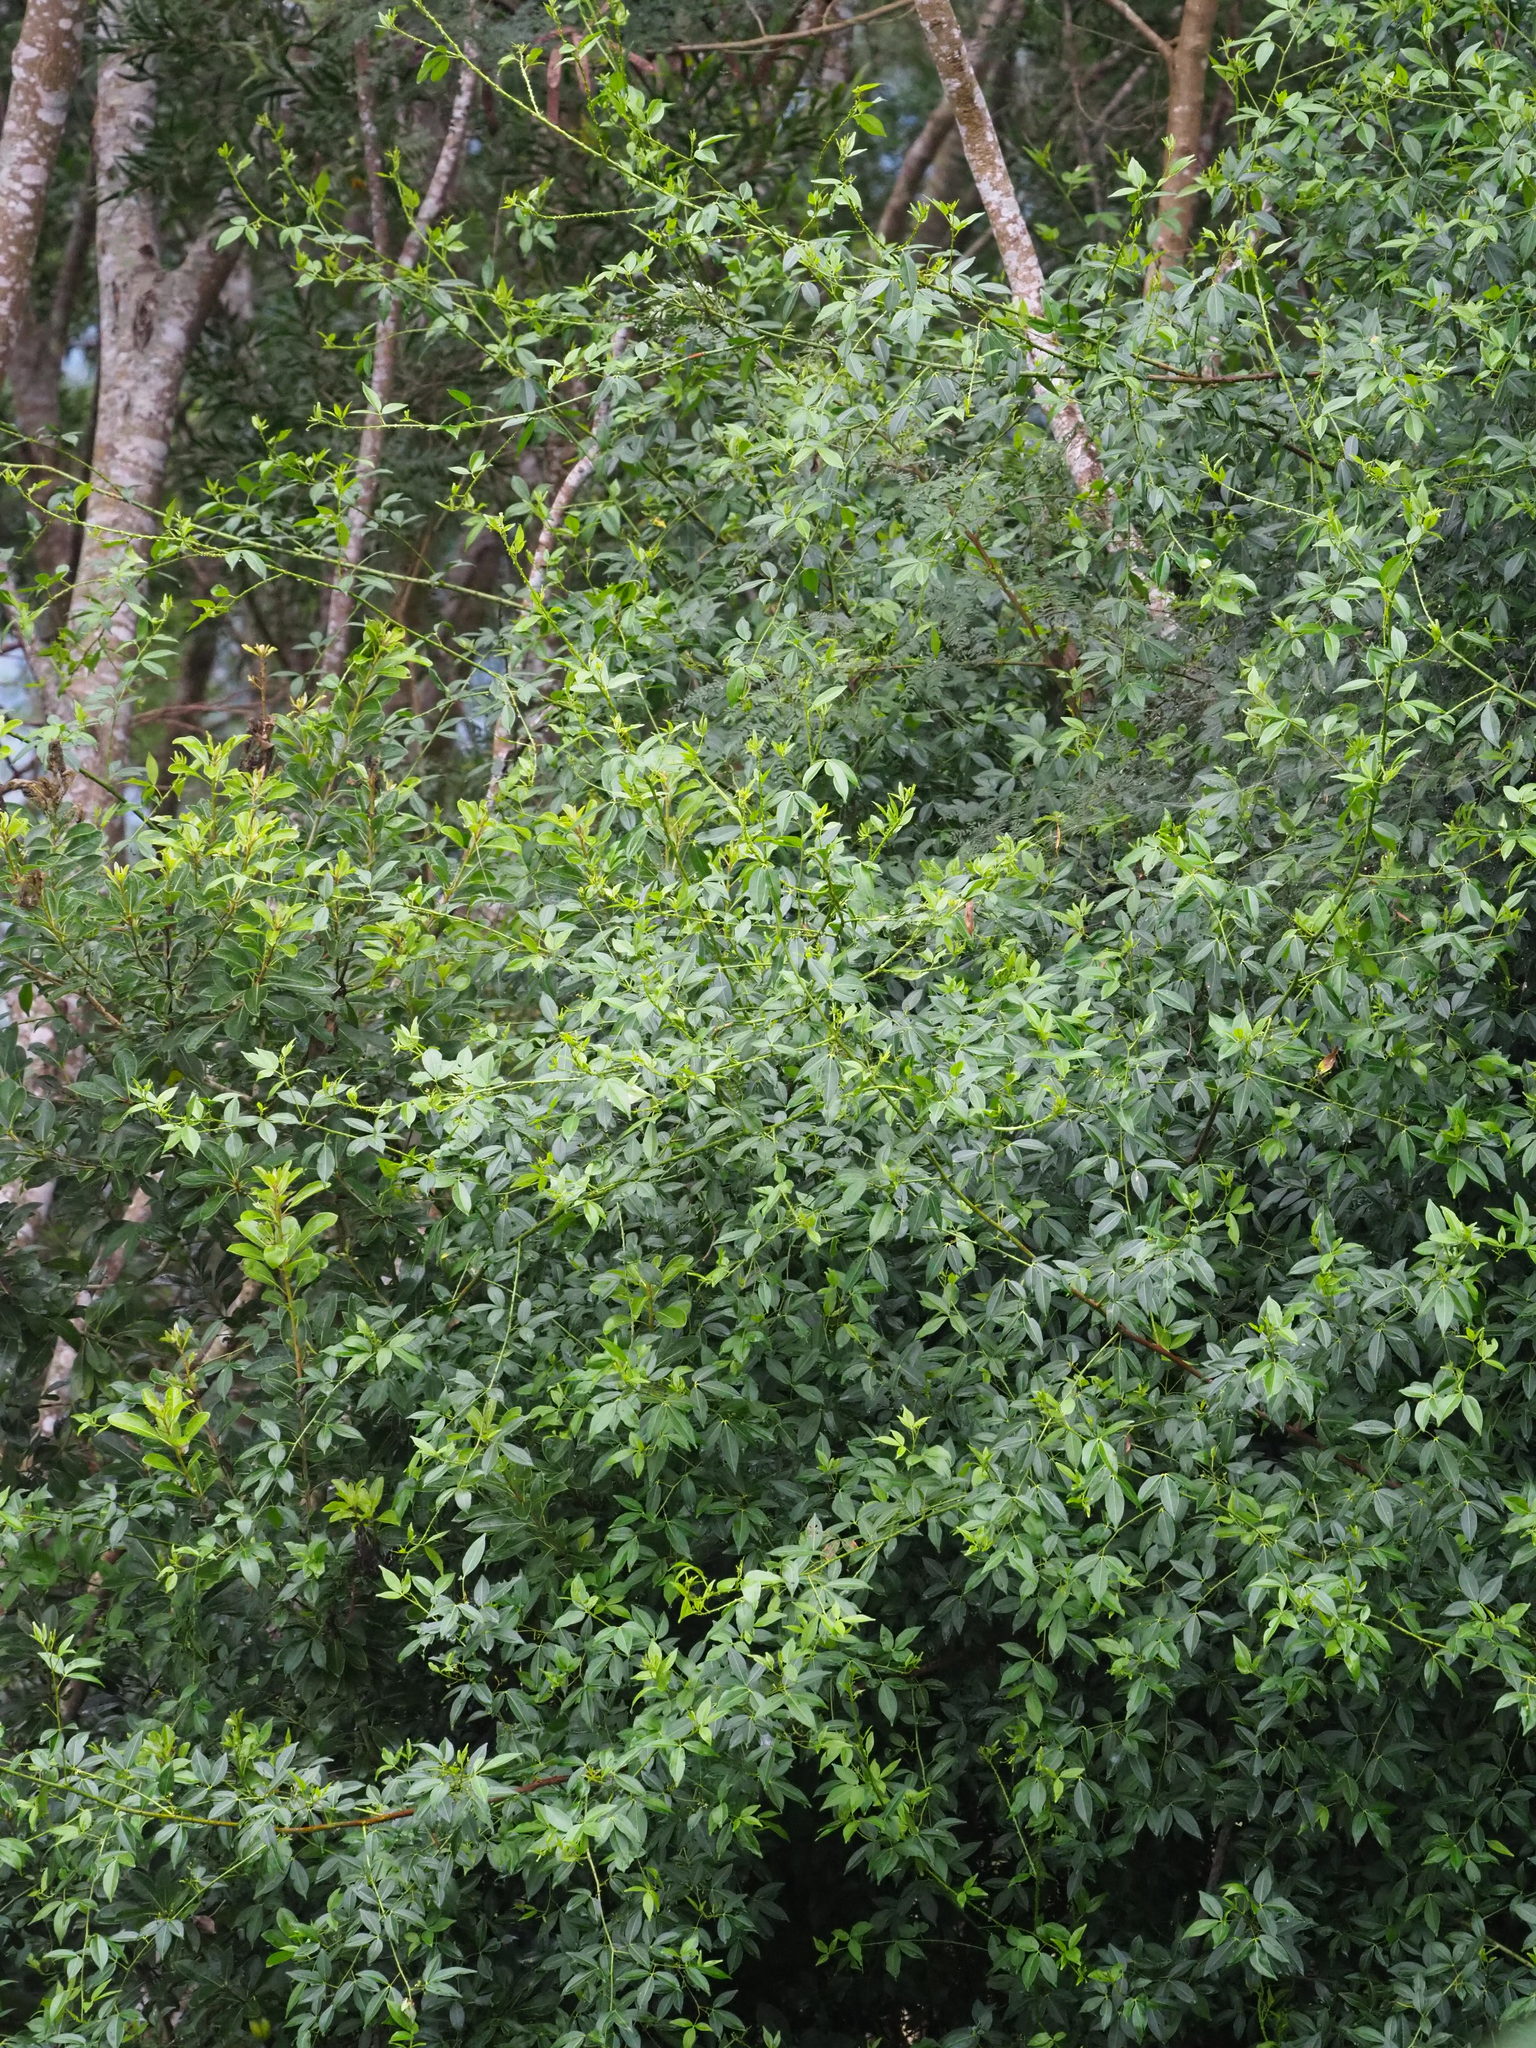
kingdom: Plantae
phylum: Tracheophyta
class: Magnoliopsida
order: Sapindales
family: Rutaceae
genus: Zanthoxylum
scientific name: Zanthoxylum asiaticum
